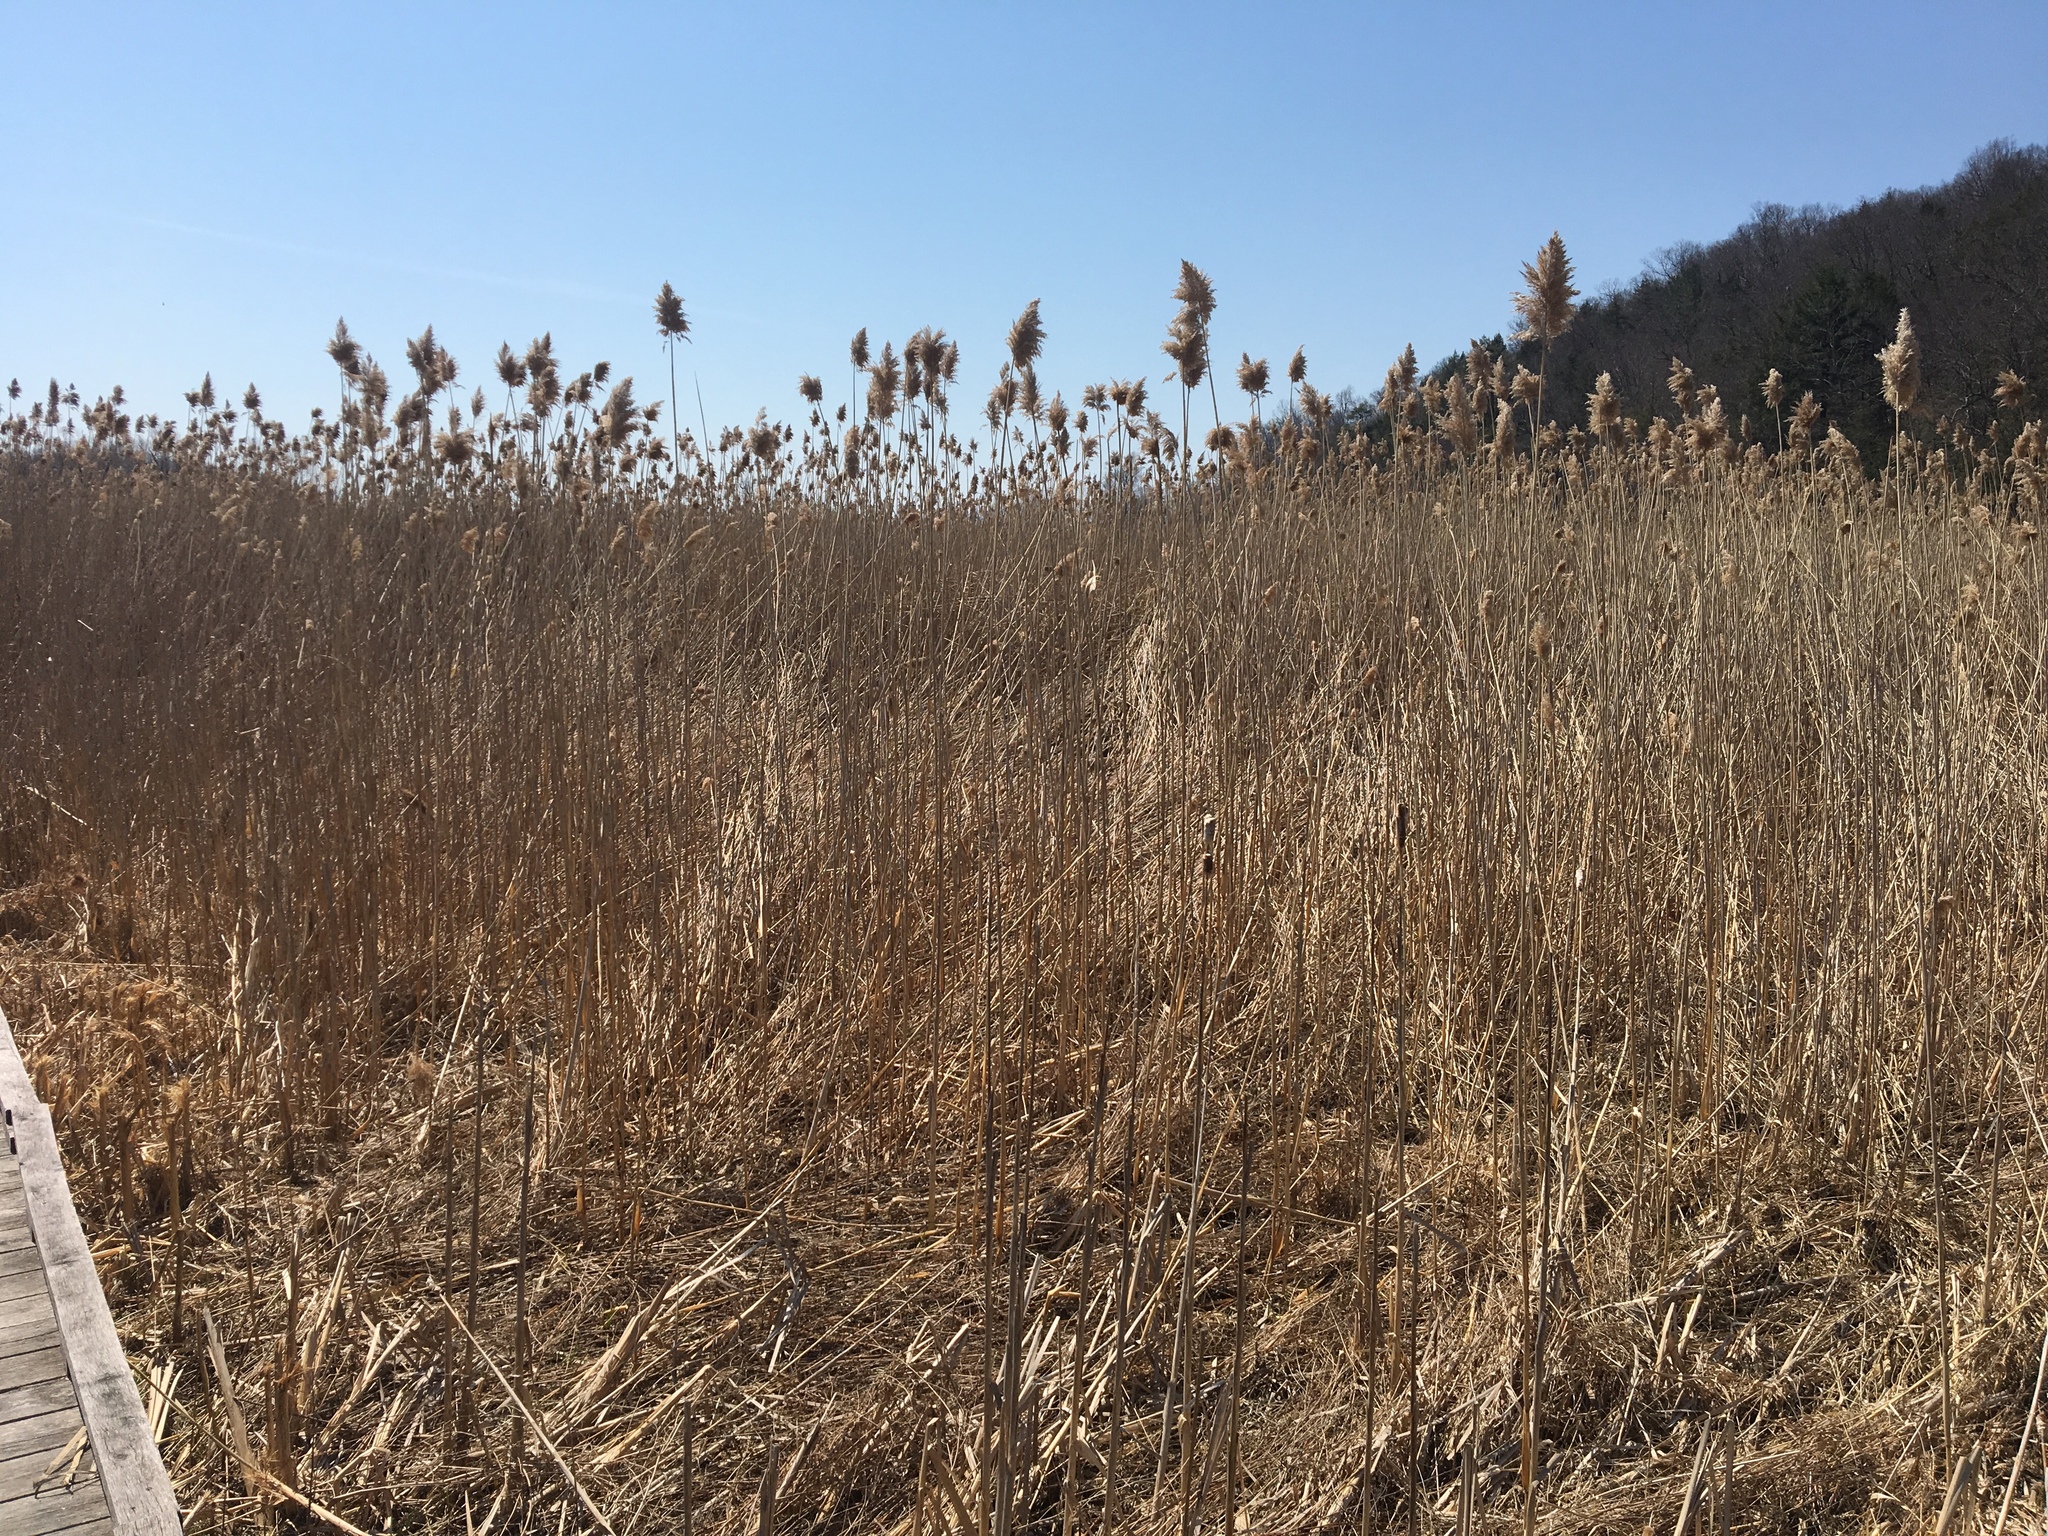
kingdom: Plantae
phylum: Tracheophyta
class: Liliopsida
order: Poales
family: Poaceae
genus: Phragmites
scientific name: Phragmites australis
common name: Common reed
